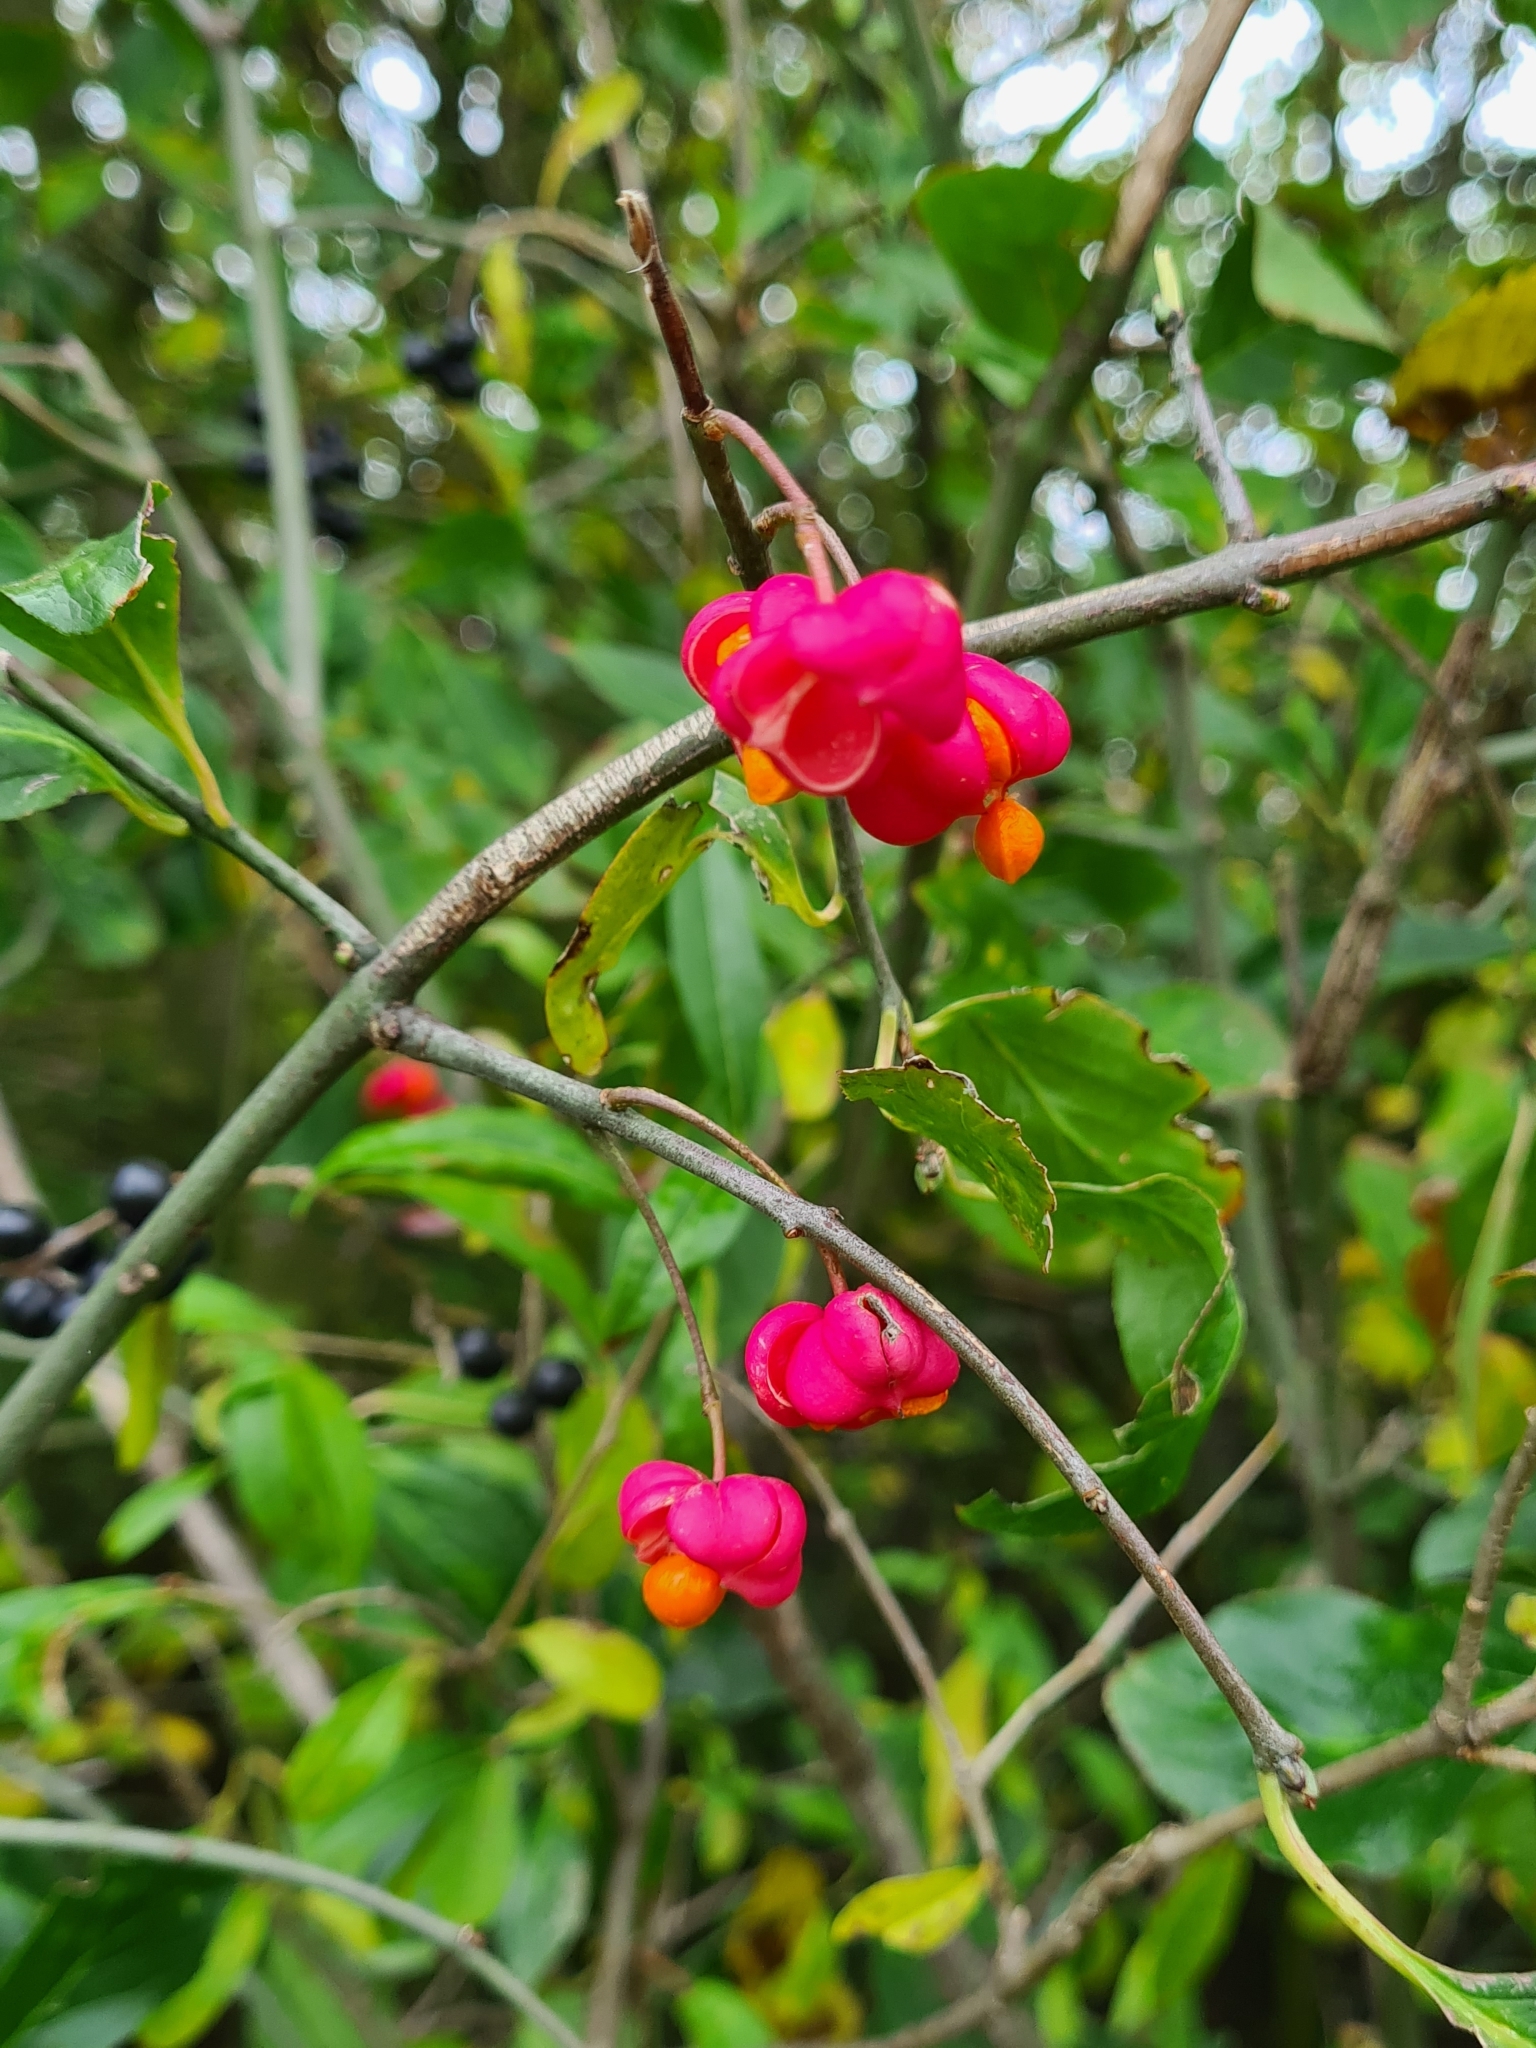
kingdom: Plantae
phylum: Tracheophyta
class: Magnoliopsida
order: Celastrales
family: Celastraceae
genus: Euonymus
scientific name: Euonymus europaeus
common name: Spindle
